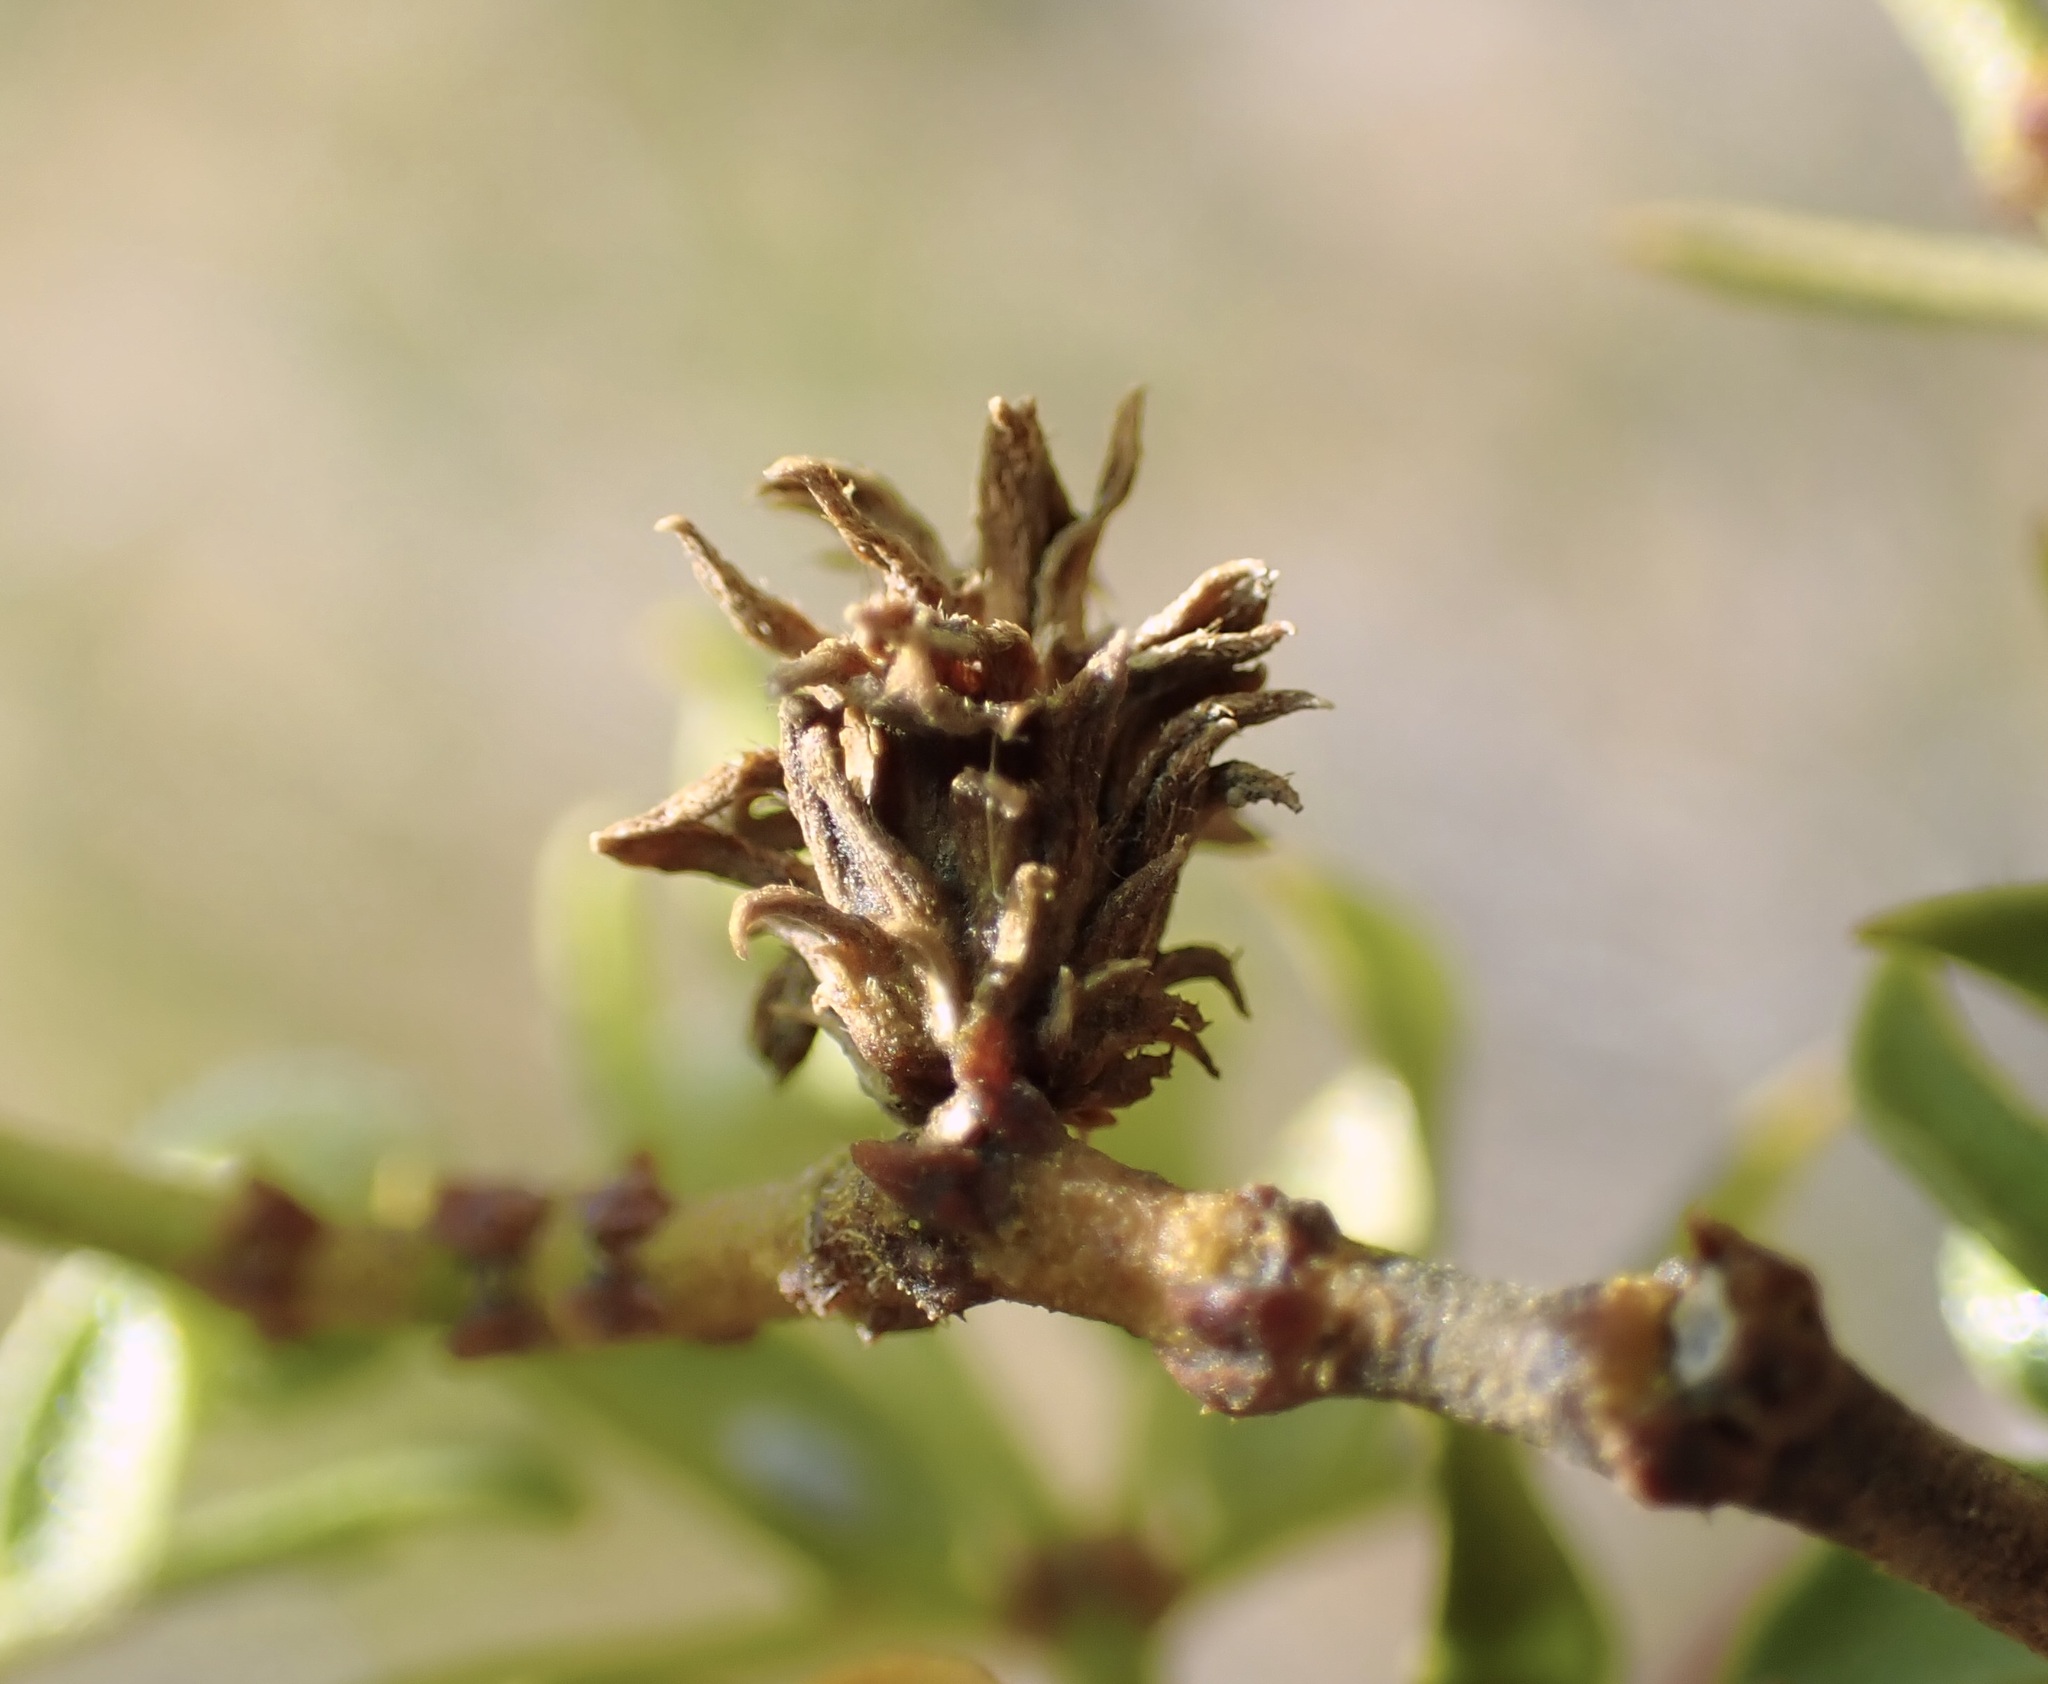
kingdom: Animalia
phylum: Arthropoda
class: Insecta
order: Diptera
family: Cecidomyiidae
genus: Asphondylia
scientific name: Asphondylia rosetta
